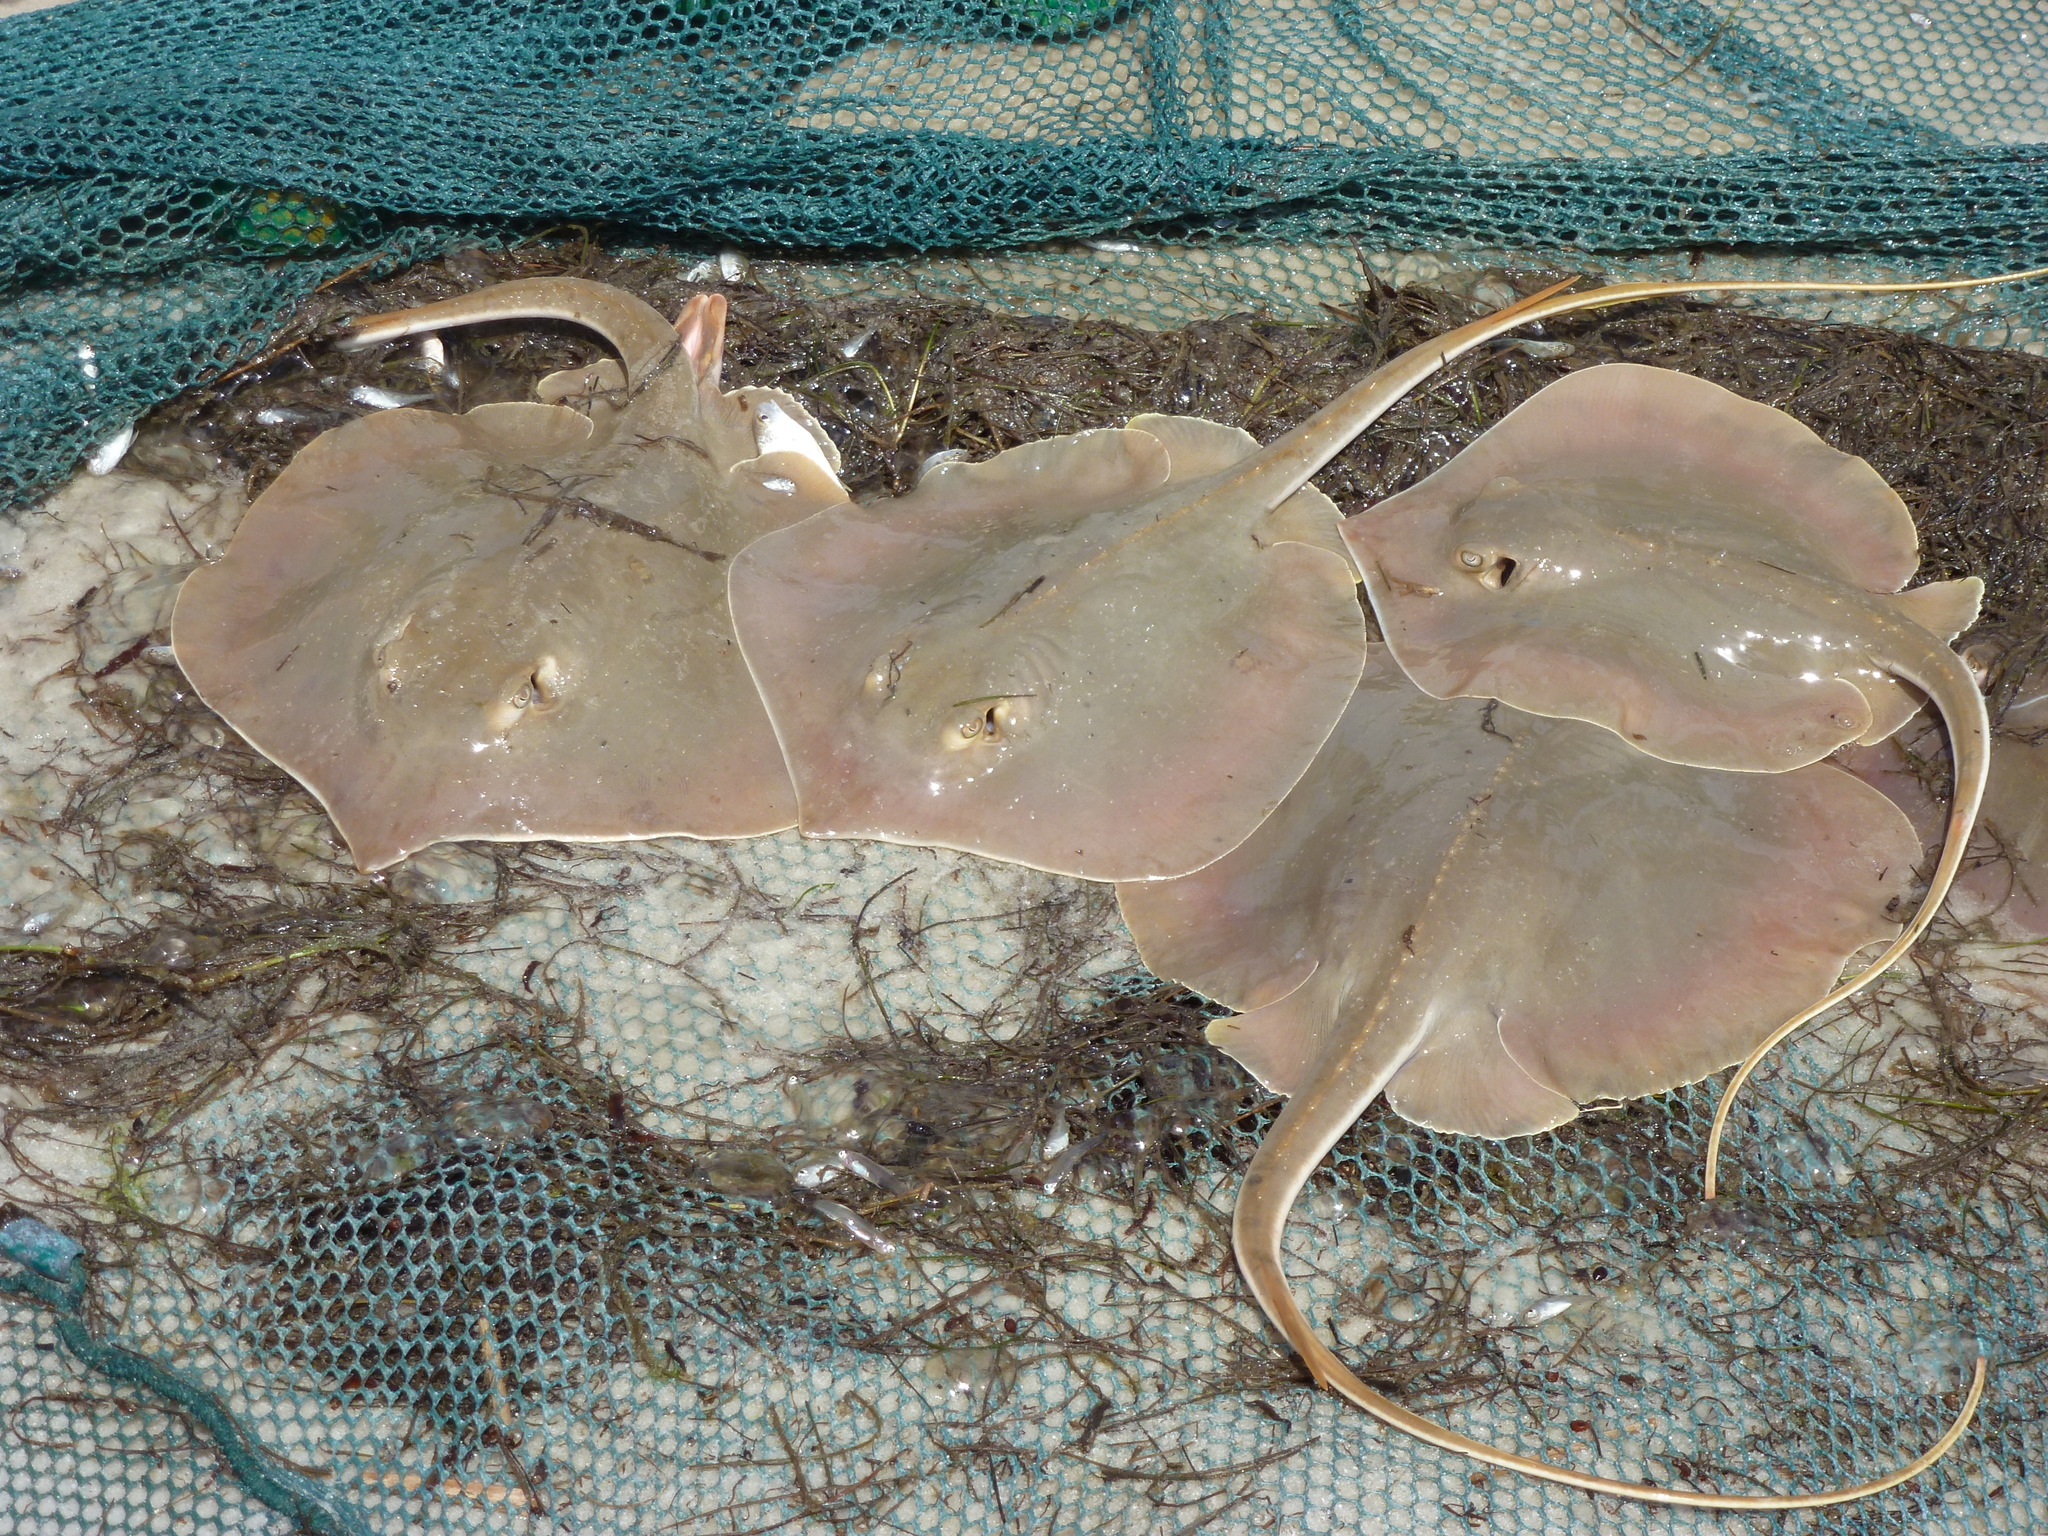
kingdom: Animalia
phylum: Chordata
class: Elasmobranchii
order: Myliobatiformes
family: Dasyatidae
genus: Hypanus
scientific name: Hypanus sabinus
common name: Atlantic stingray
